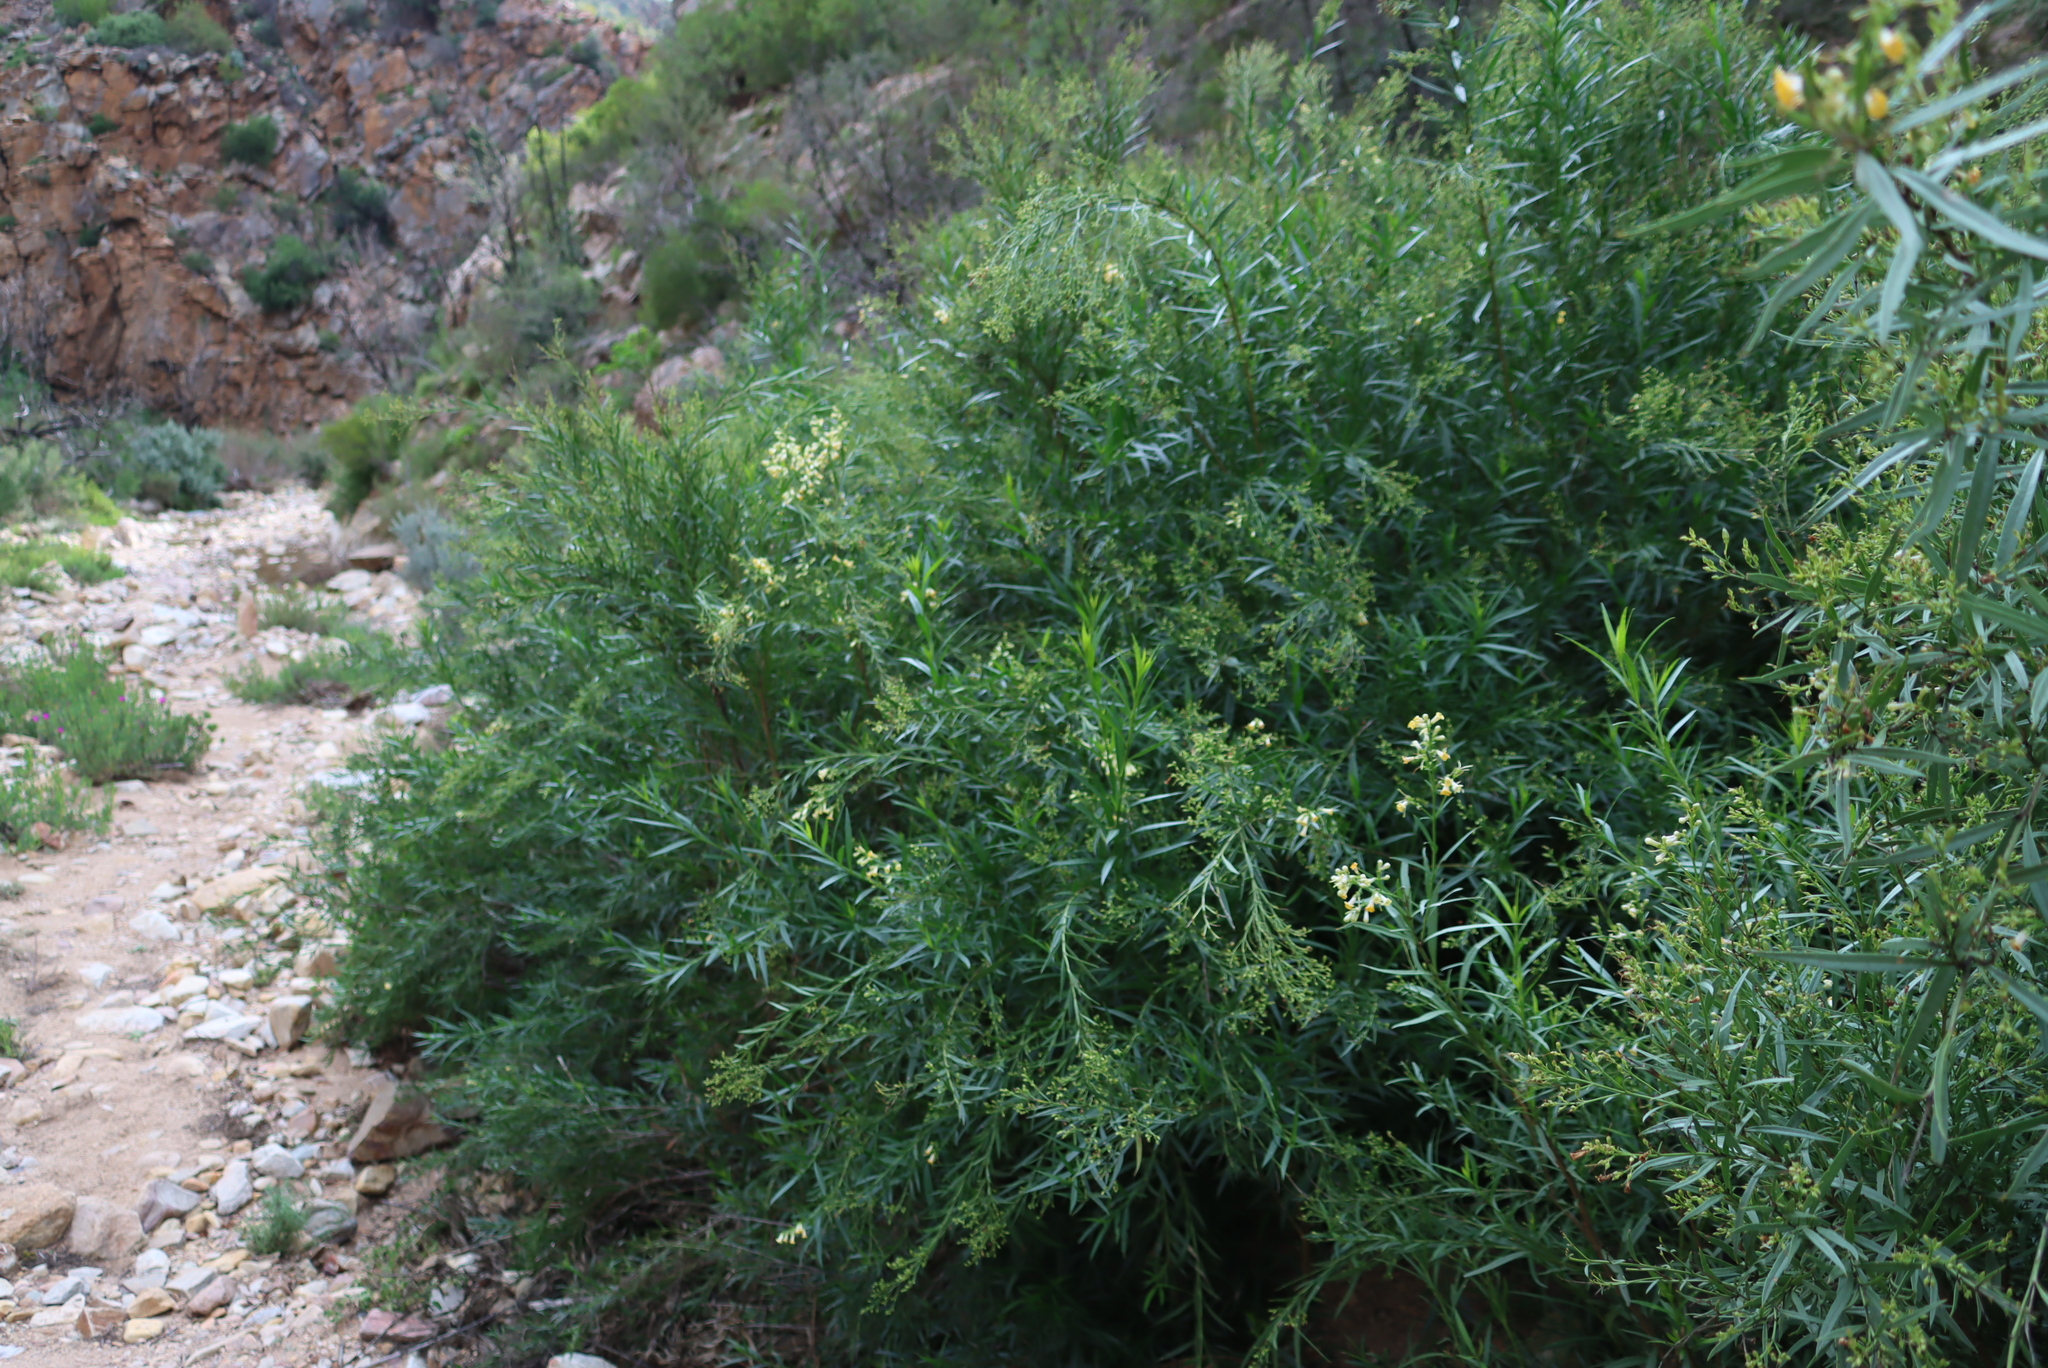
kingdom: Plantae
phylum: Tracheophyta
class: Magnoliopsida
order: Lamiales
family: Scrophulariaceae
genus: Freylinia
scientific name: Freylinia lanceolata
